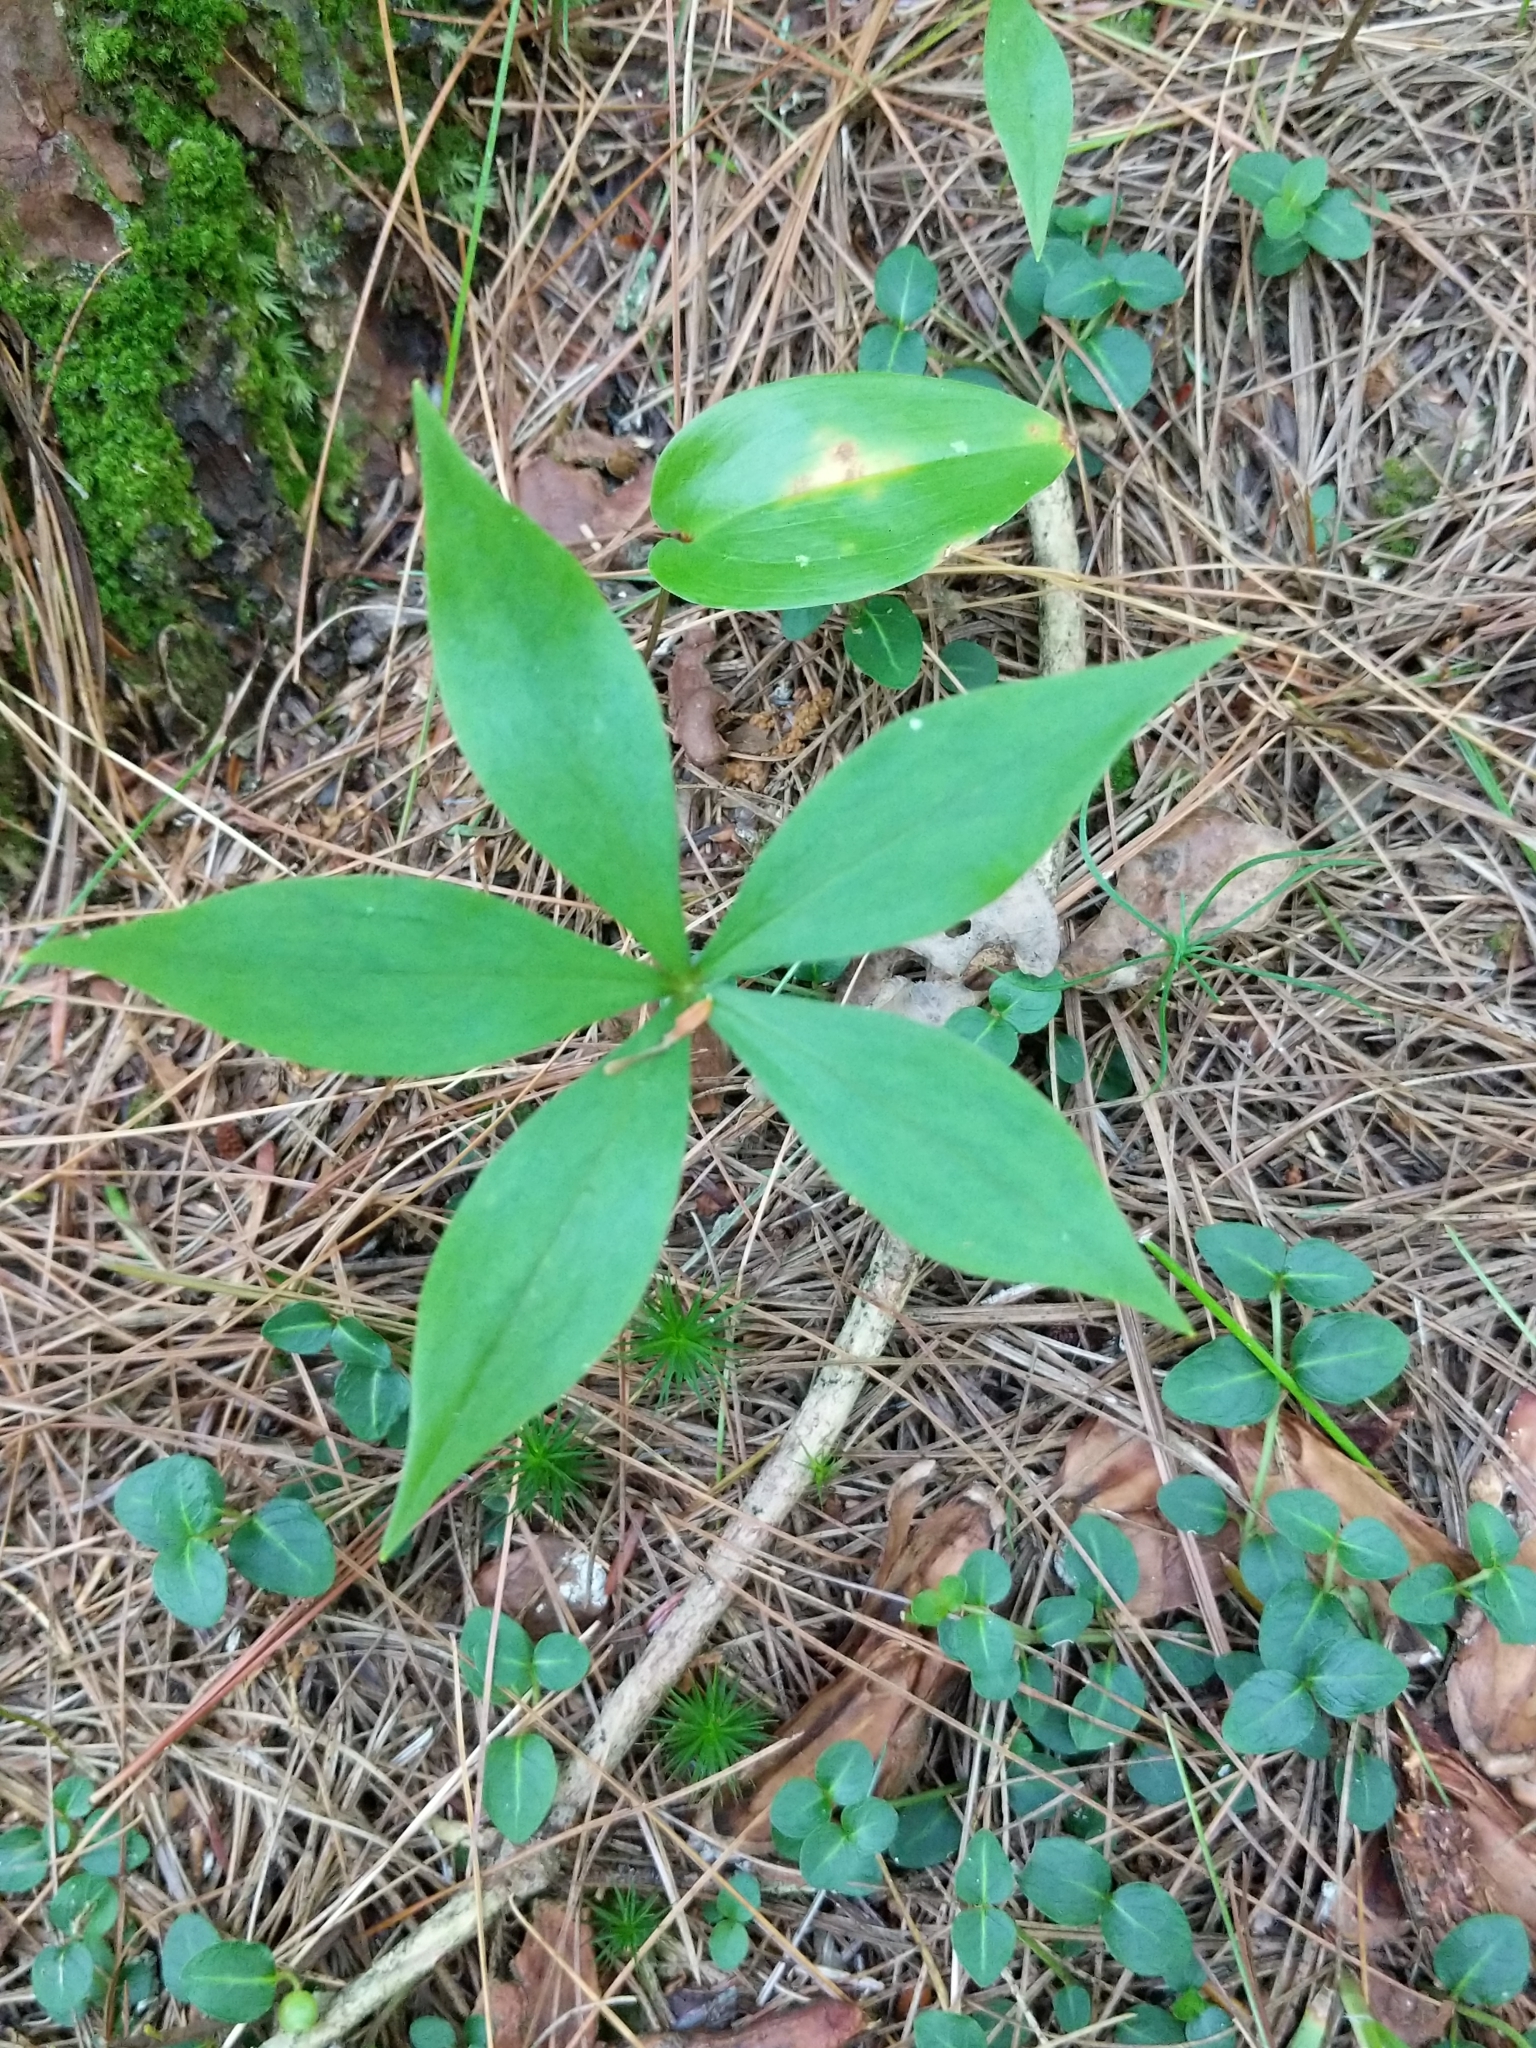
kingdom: Plantae
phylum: Tracheophyta
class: Liliopsida
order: Liliales
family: Liliaceae
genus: Medeola
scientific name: Medeola virginiana
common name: Indian cucumber-root
